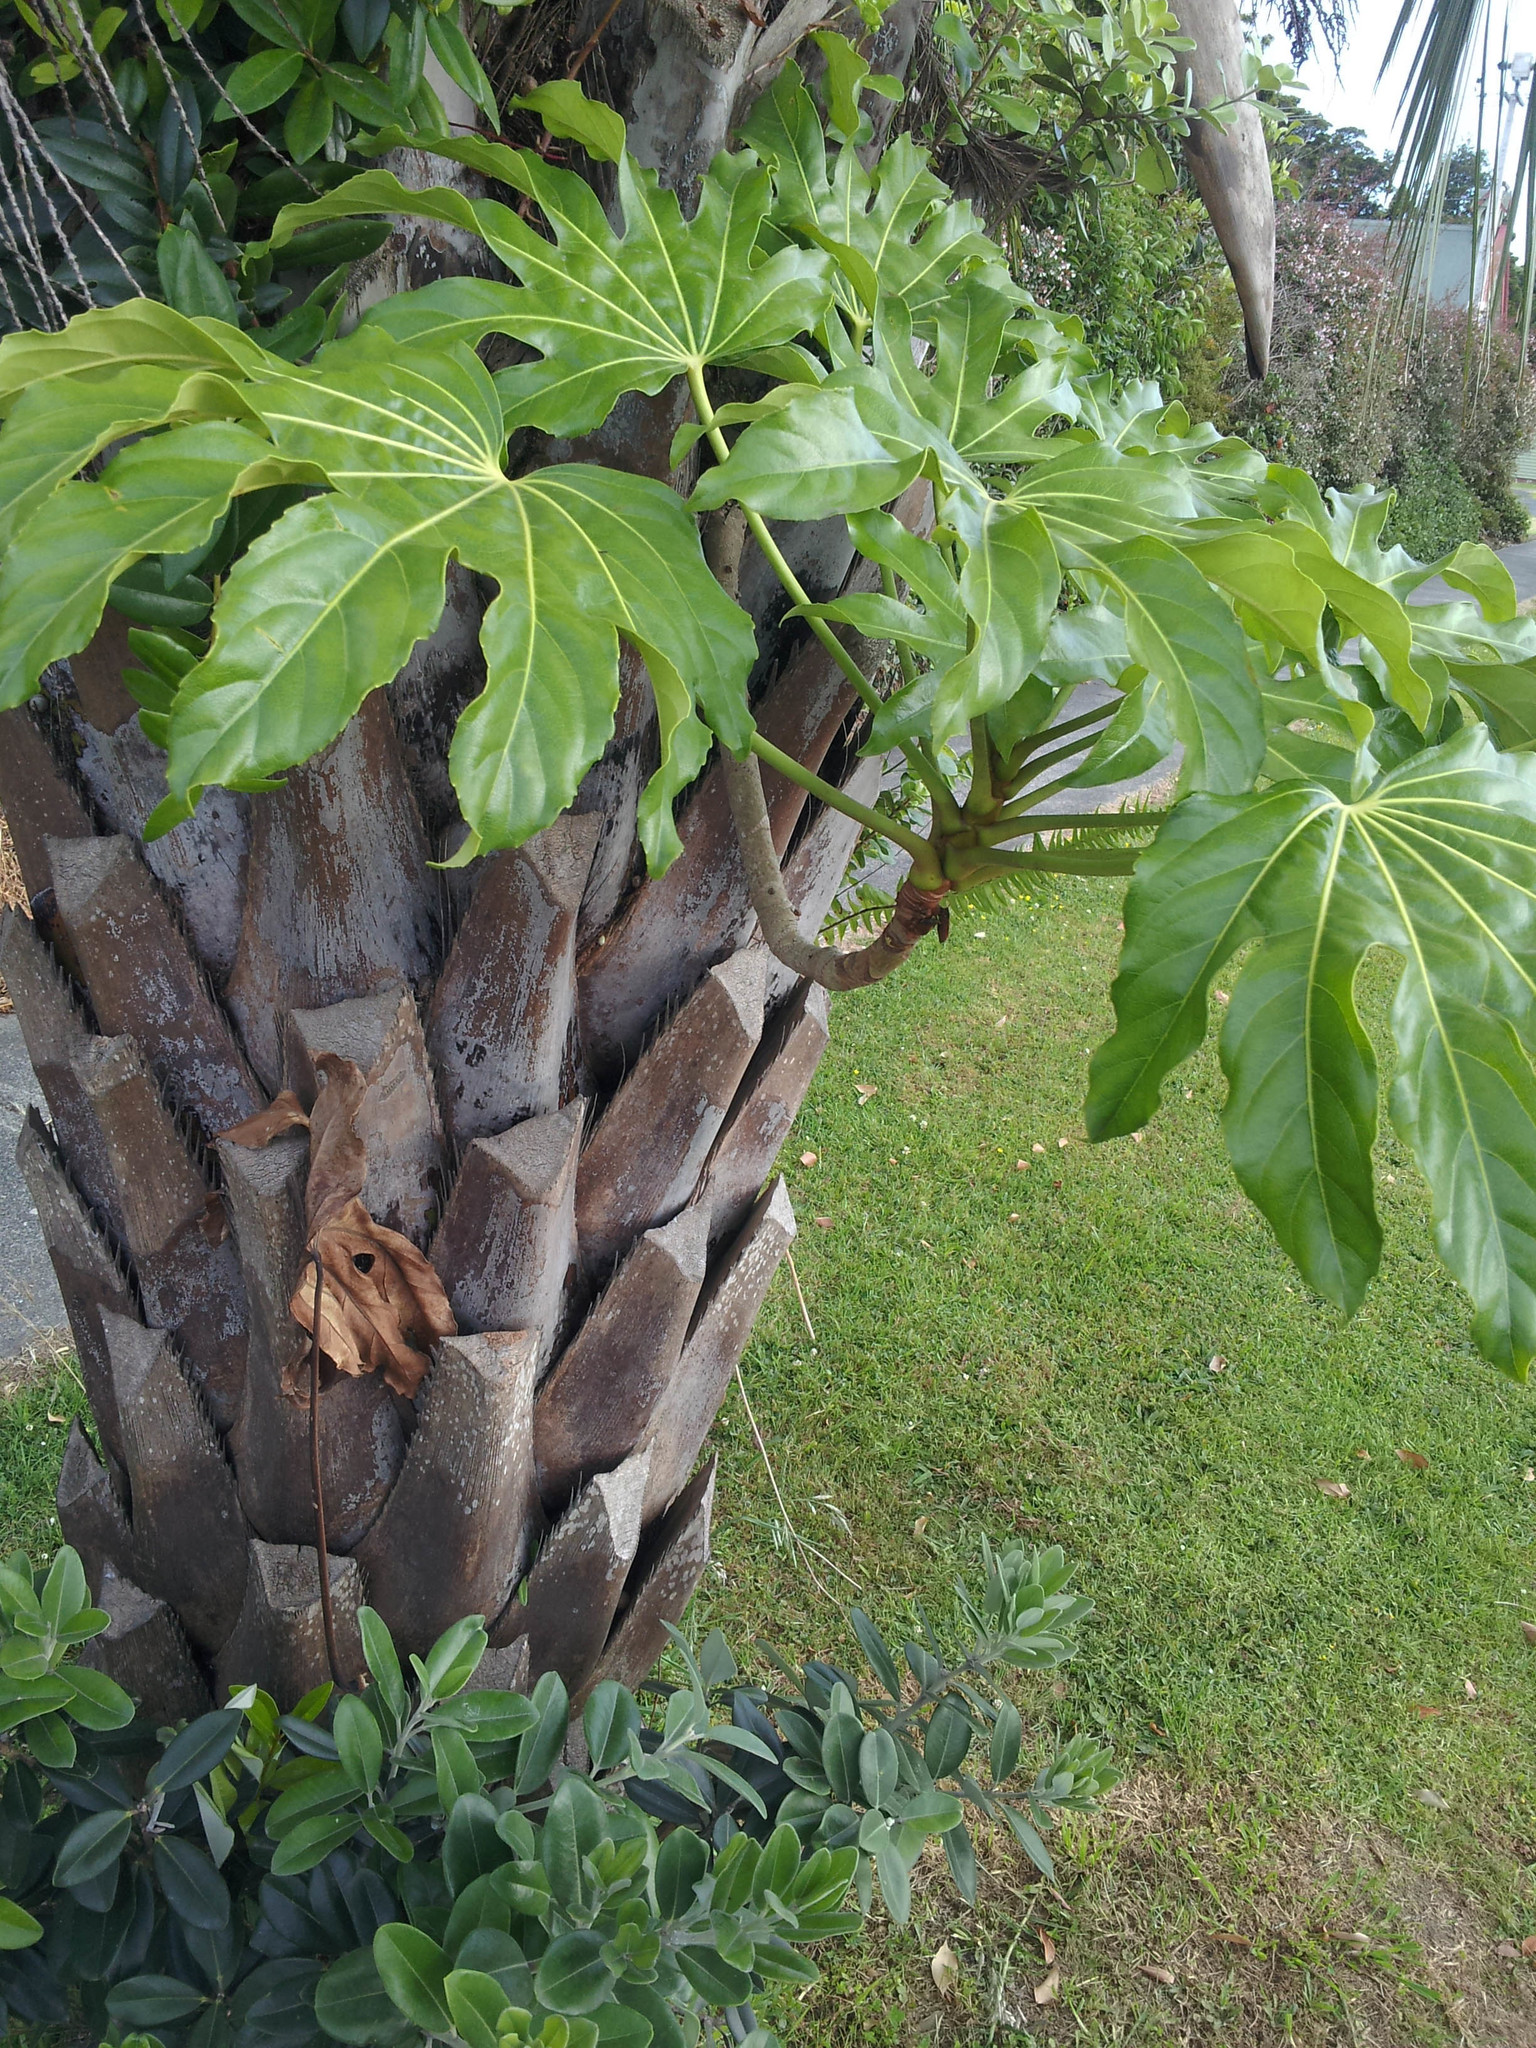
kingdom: Plantae
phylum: Tracheophyta
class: Magnoliopsida
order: Apiales
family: Araliaceae
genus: Fatsia
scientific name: Fatsia japonica
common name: Fatsia
